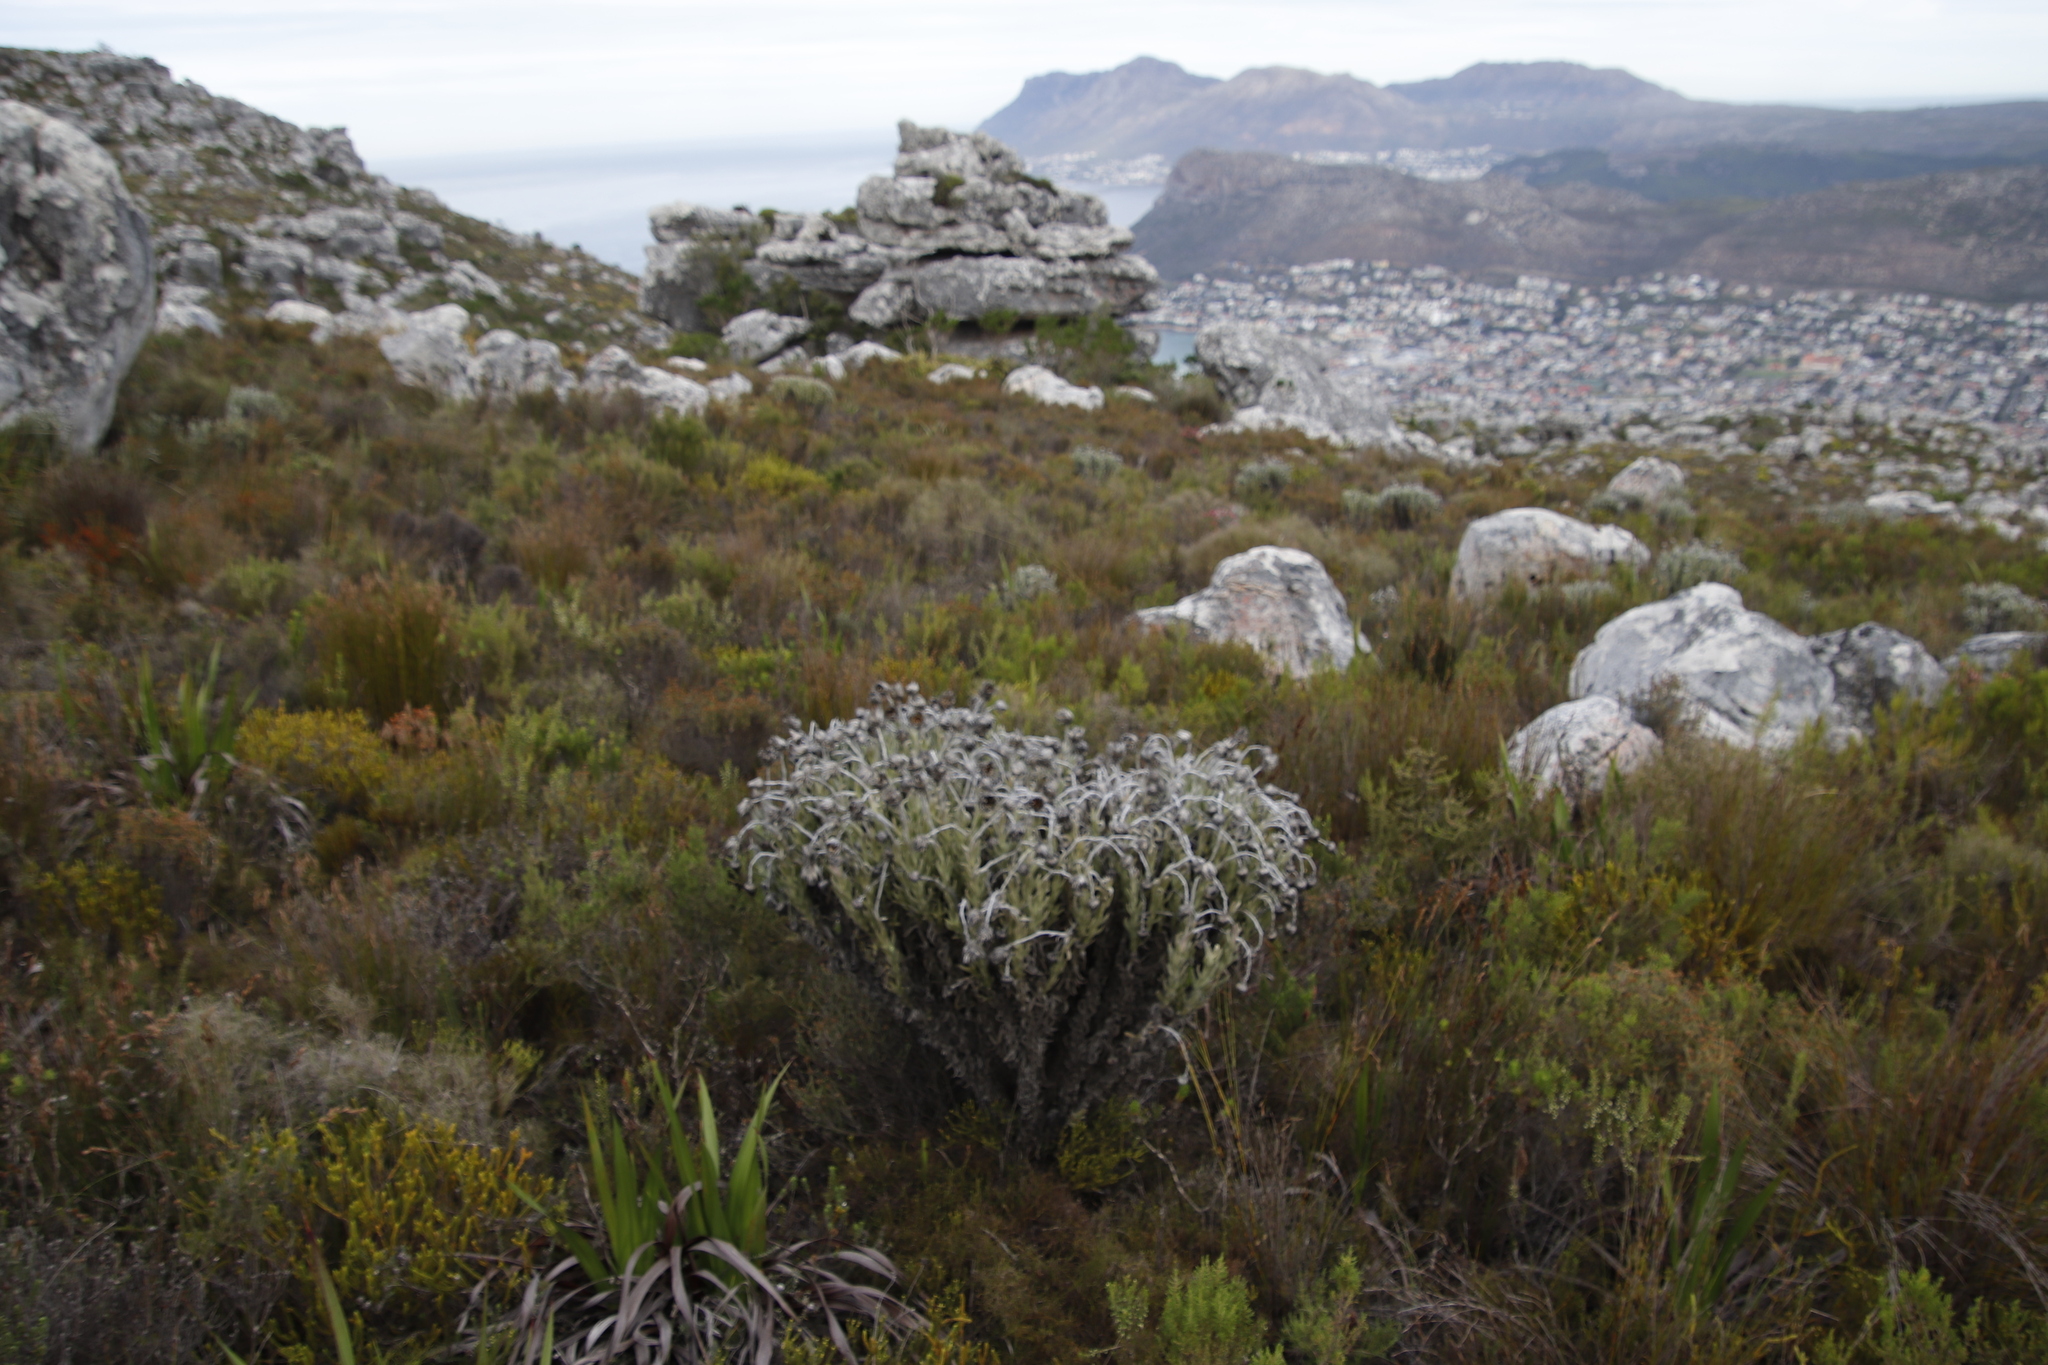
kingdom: Plantae
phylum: Tracheophyta
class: Magnoliopsida
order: Asterales
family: Asteraceae
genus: Syncarpha
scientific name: Syncarpha vestita
